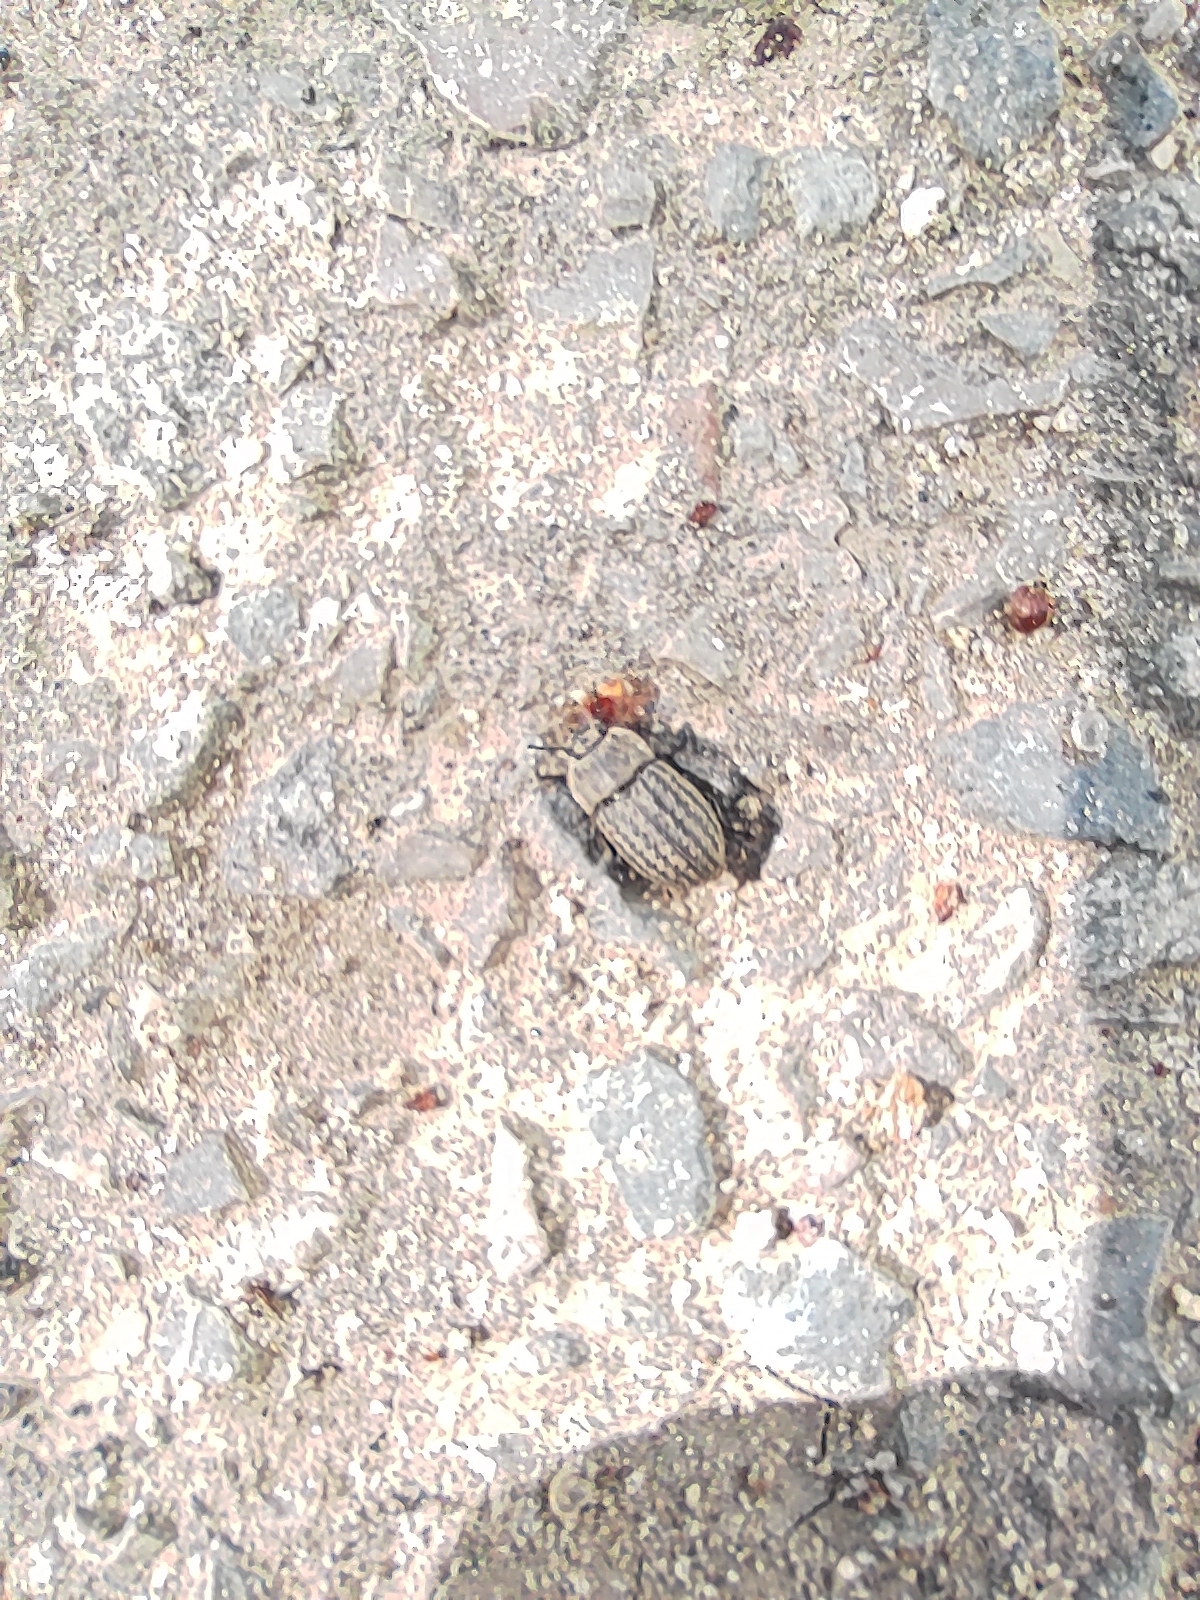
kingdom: Animalia
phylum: Arthropoda
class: Insecta
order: Coleoptera
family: Tenebrionidae
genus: Opatrum
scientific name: Opatrum sabulosum
